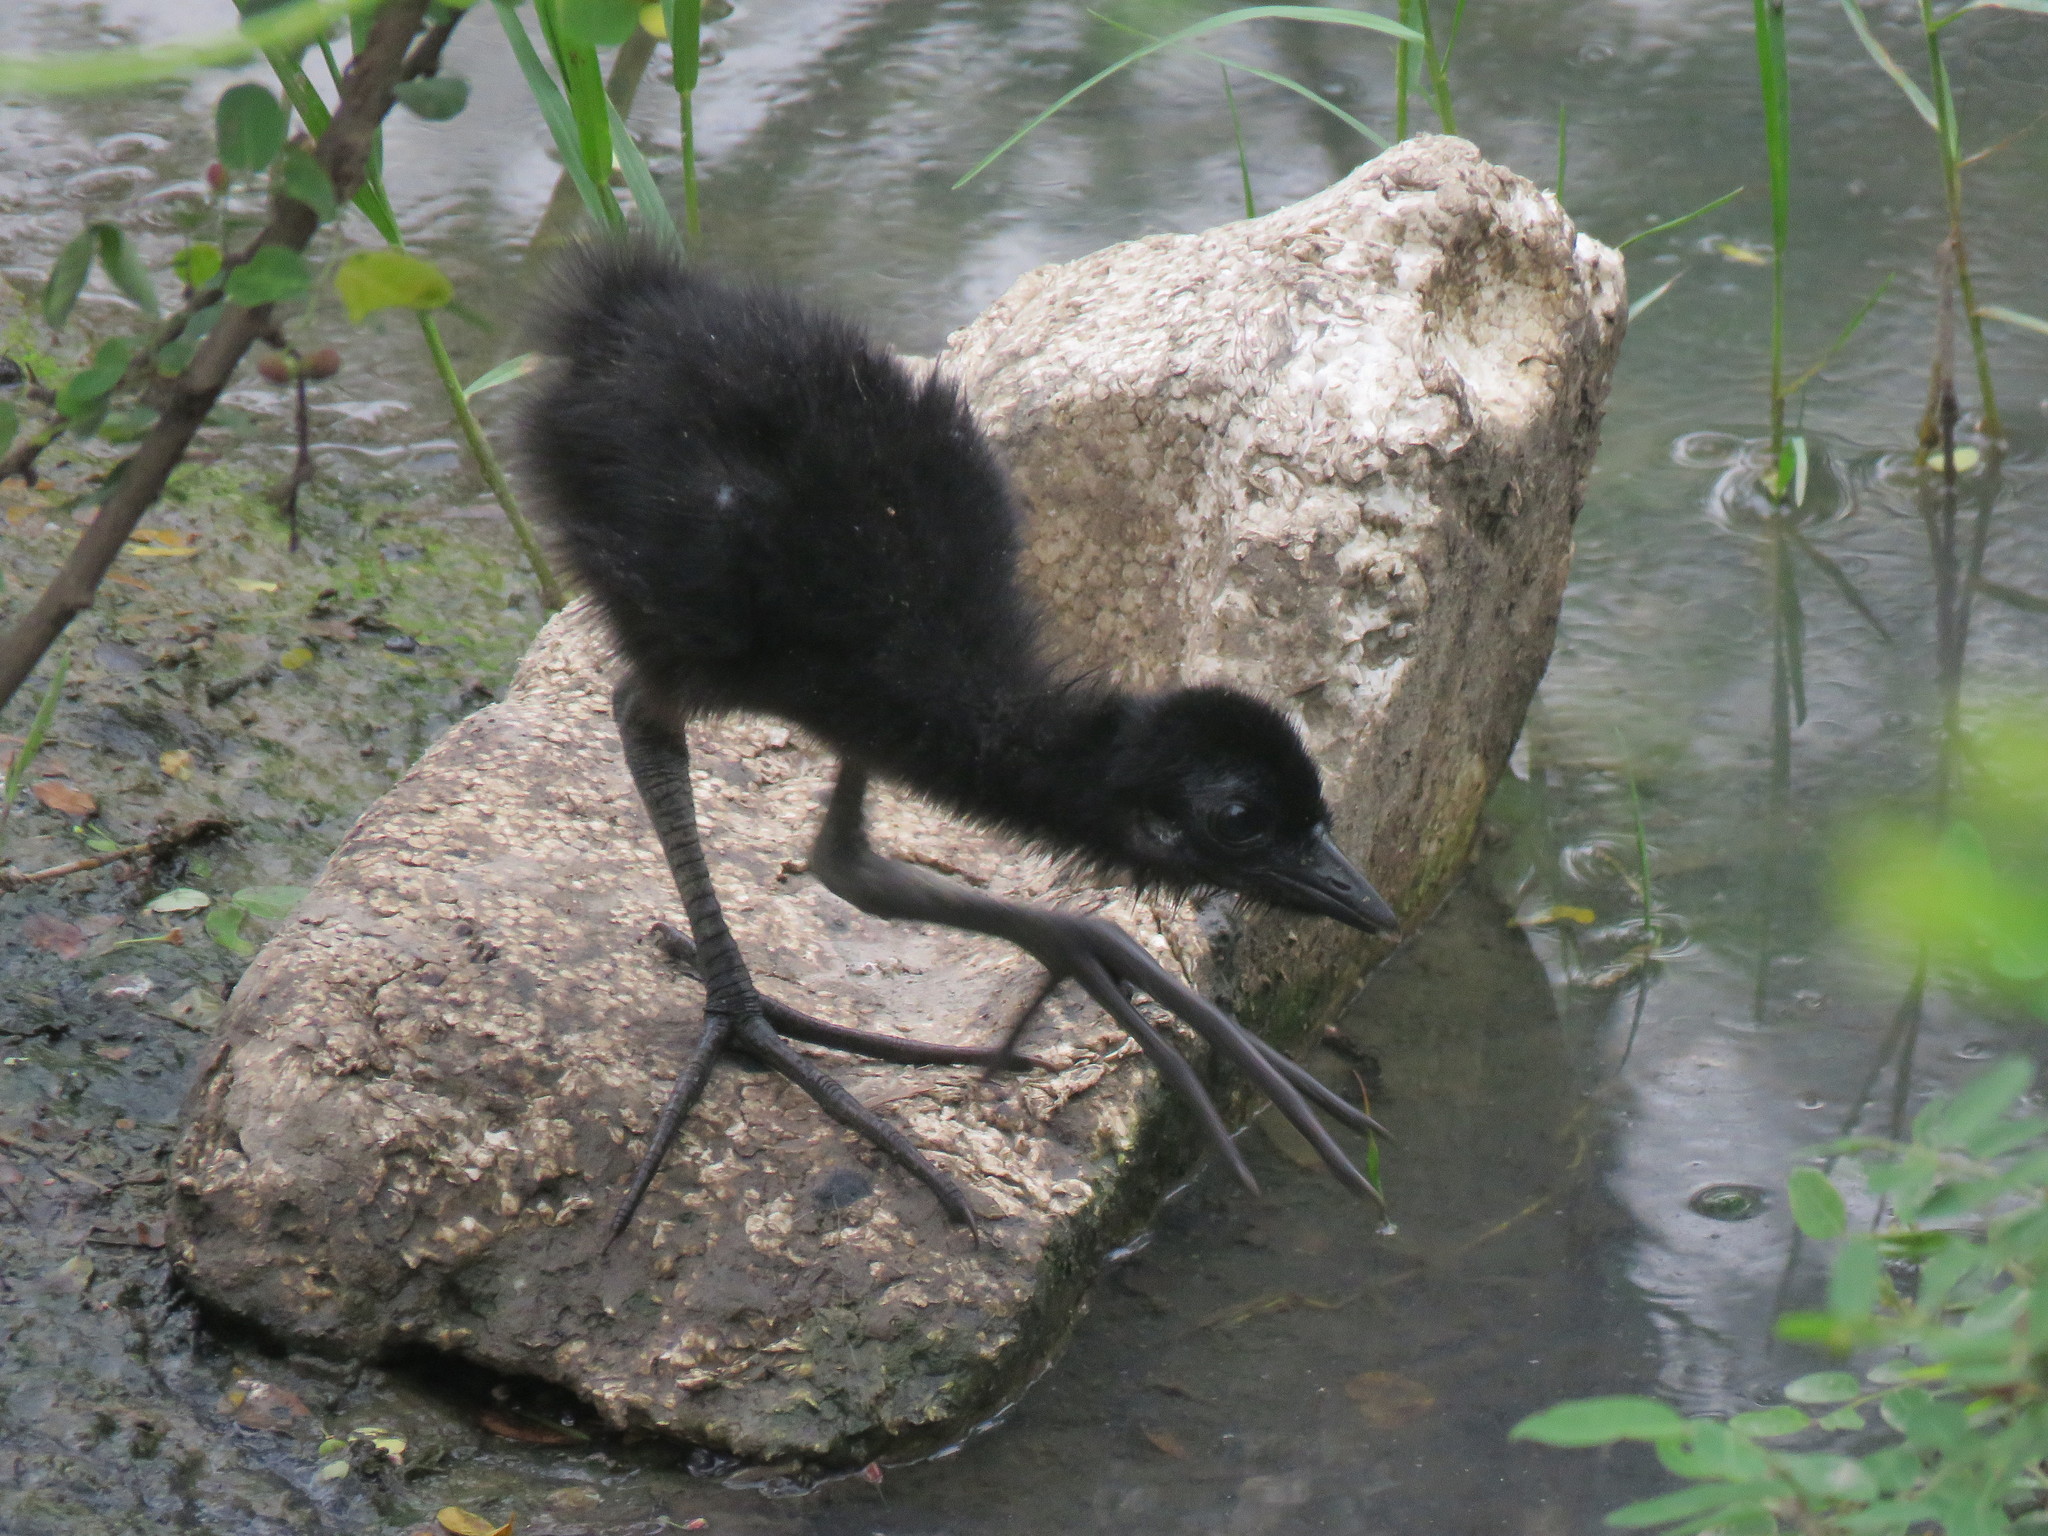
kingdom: Animalia
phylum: Chordata
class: Aves
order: Gruiformes
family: Rallidae
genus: Amaurornis
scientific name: Amaurornis phoenicurus
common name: White-breasted waterhen
